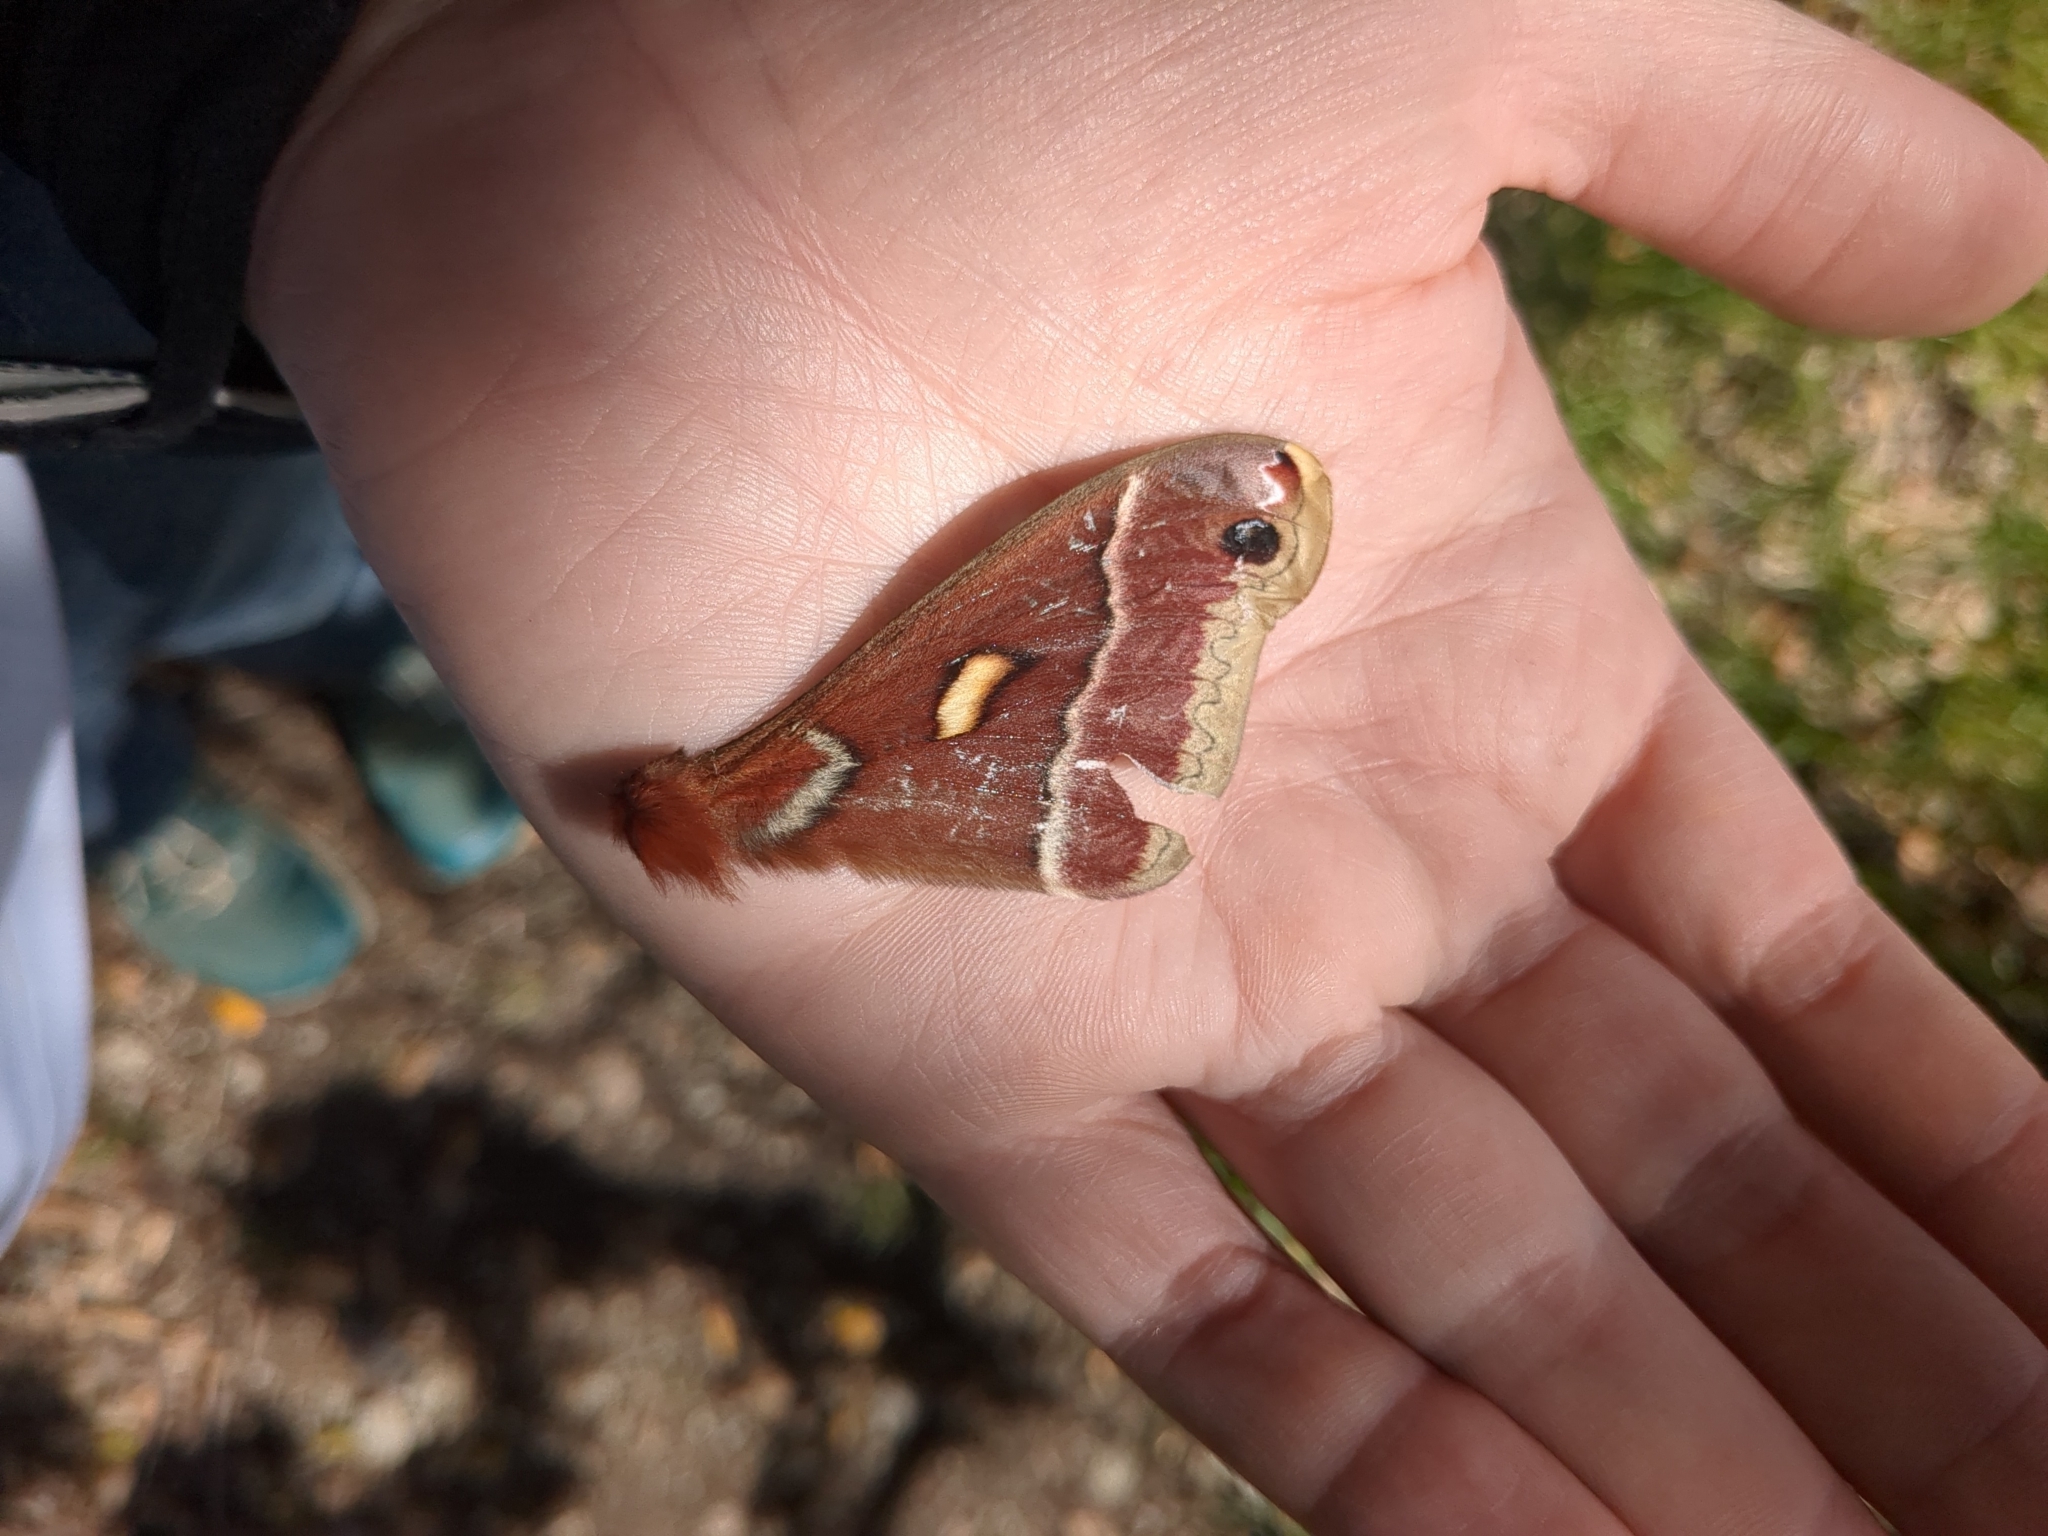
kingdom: Animalia
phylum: Arthropoda
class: Insecta
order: Lepidoptera
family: Saturniidae
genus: Hyalophora
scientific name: Hyalophora euryalus
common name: Ceanothus silkmoth
